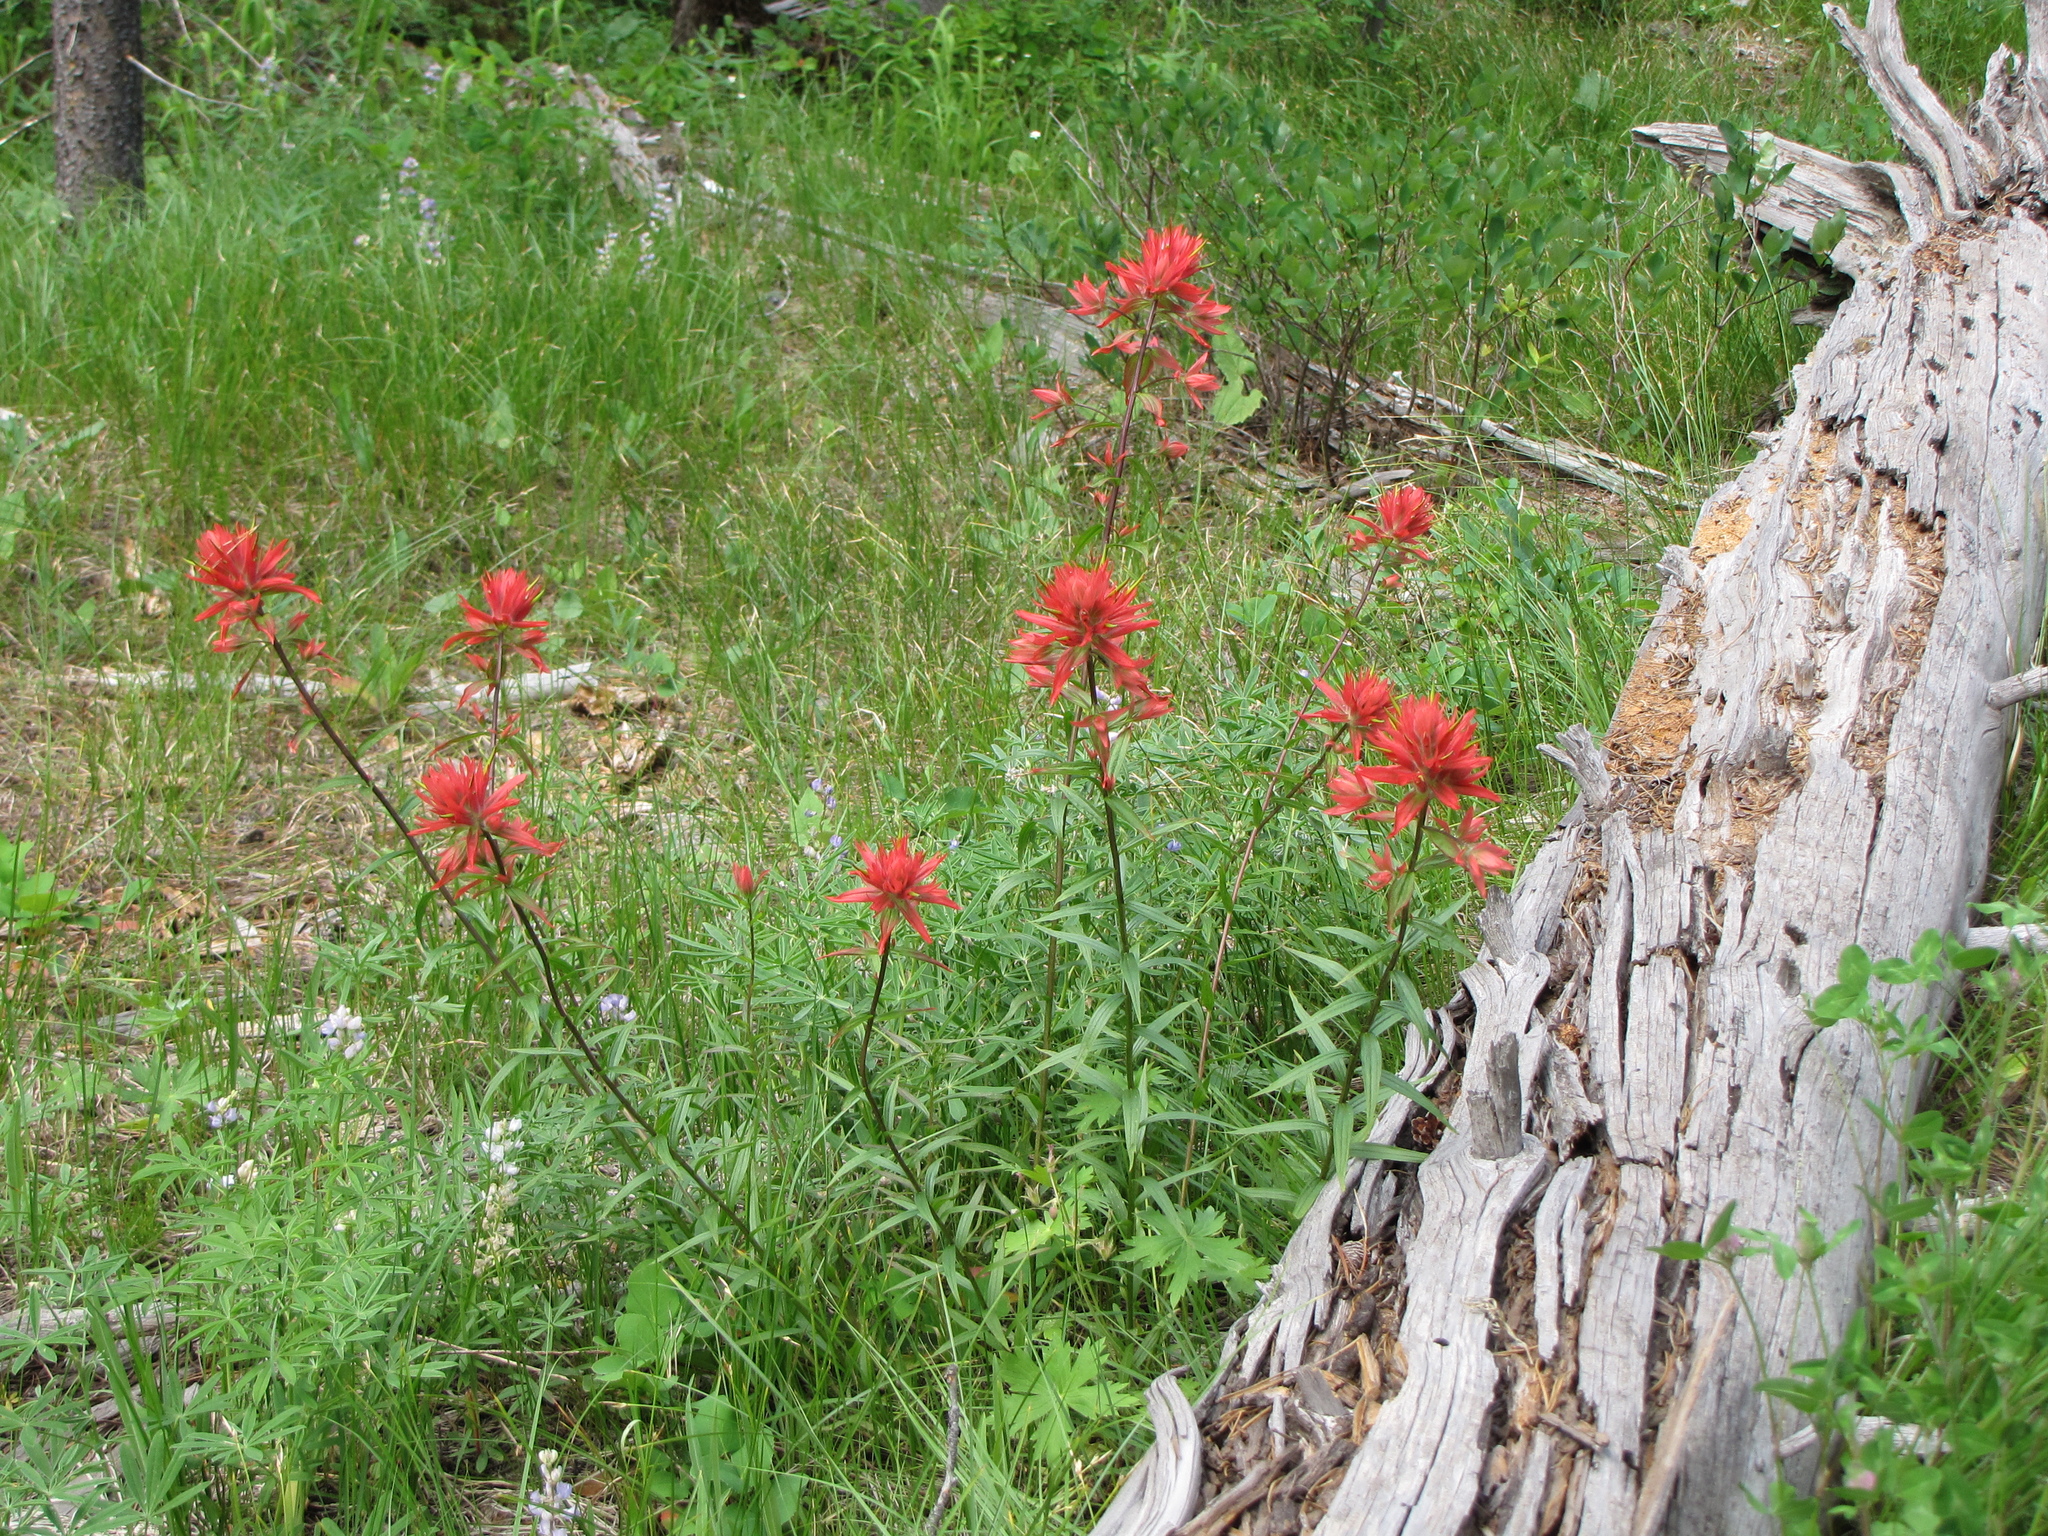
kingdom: Plantae
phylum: Tracheophyta
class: Magnoliopsida
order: Lamiales
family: Orobanchaceae
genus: Castilleja
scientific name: Castilleja miniata
